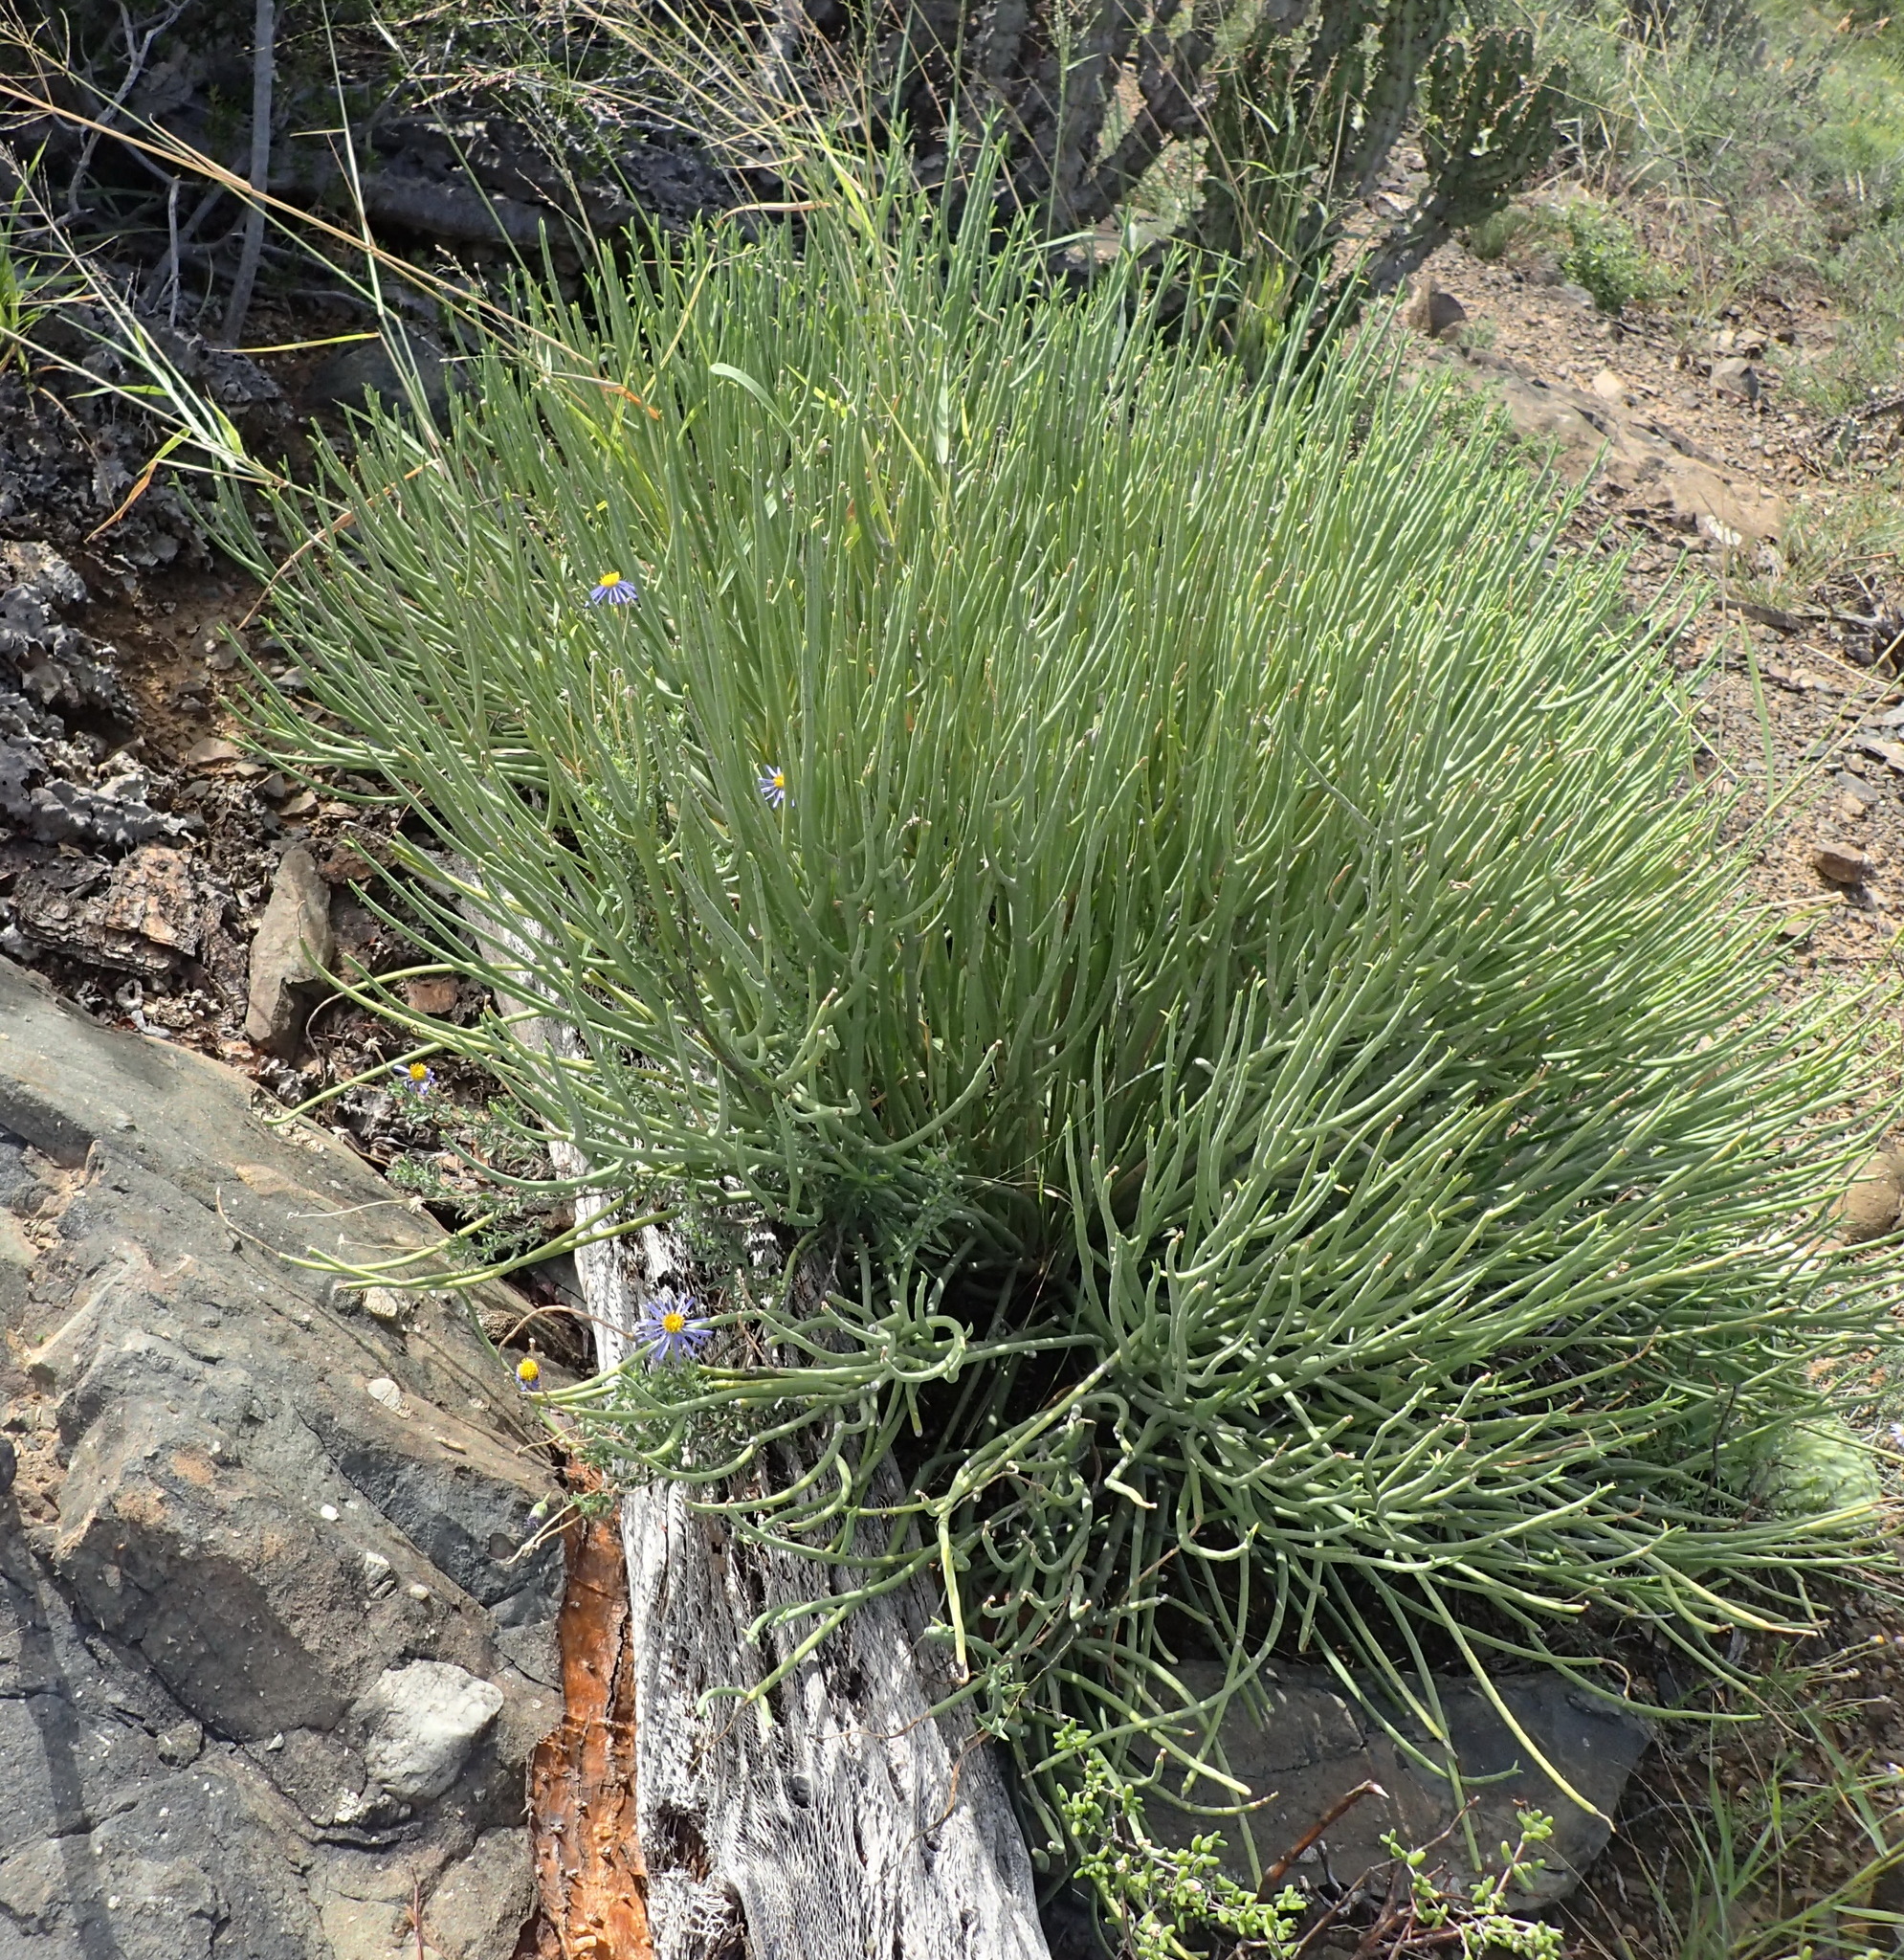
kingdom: Plantae
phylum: Tracheophyta
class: Magnoliopsida
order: Malpighiales
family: Euphorbiaceae
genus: Euphorbia
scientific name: Euphorbia mauritanica
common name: Jackal's-food
